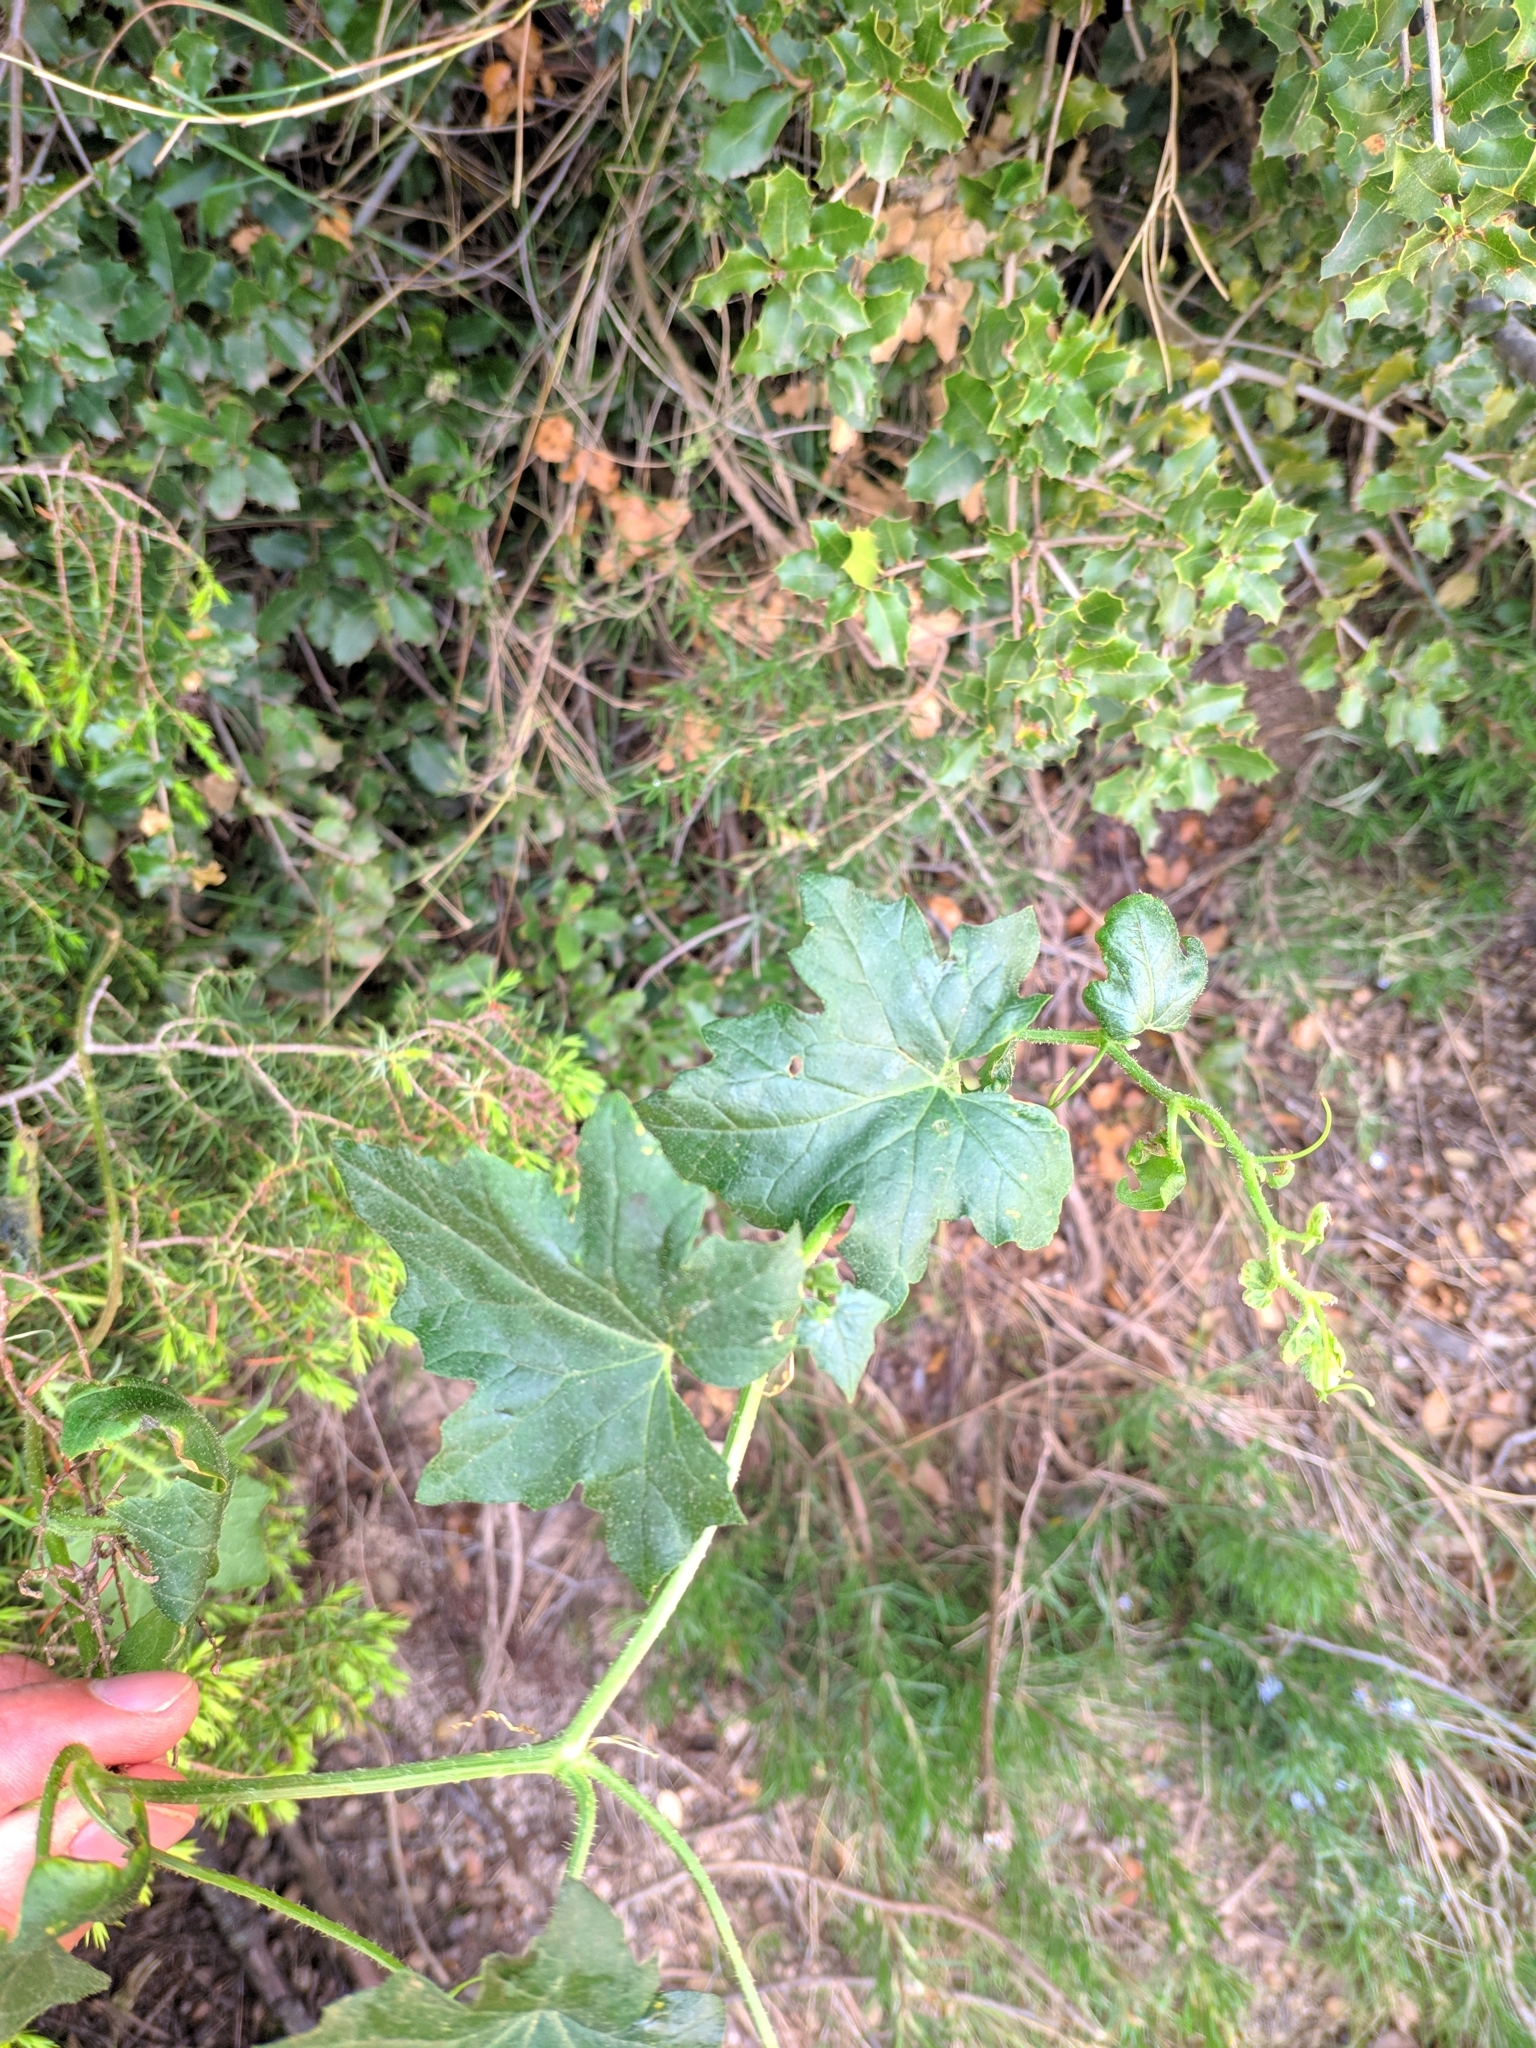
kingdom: Plantae
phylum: Tracheophyta
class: Magnoliopsida
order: Cucurbitales
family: Cucurbitaceae
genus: Bryonia
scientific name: Bryonia cretica
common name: Cretan bryony
